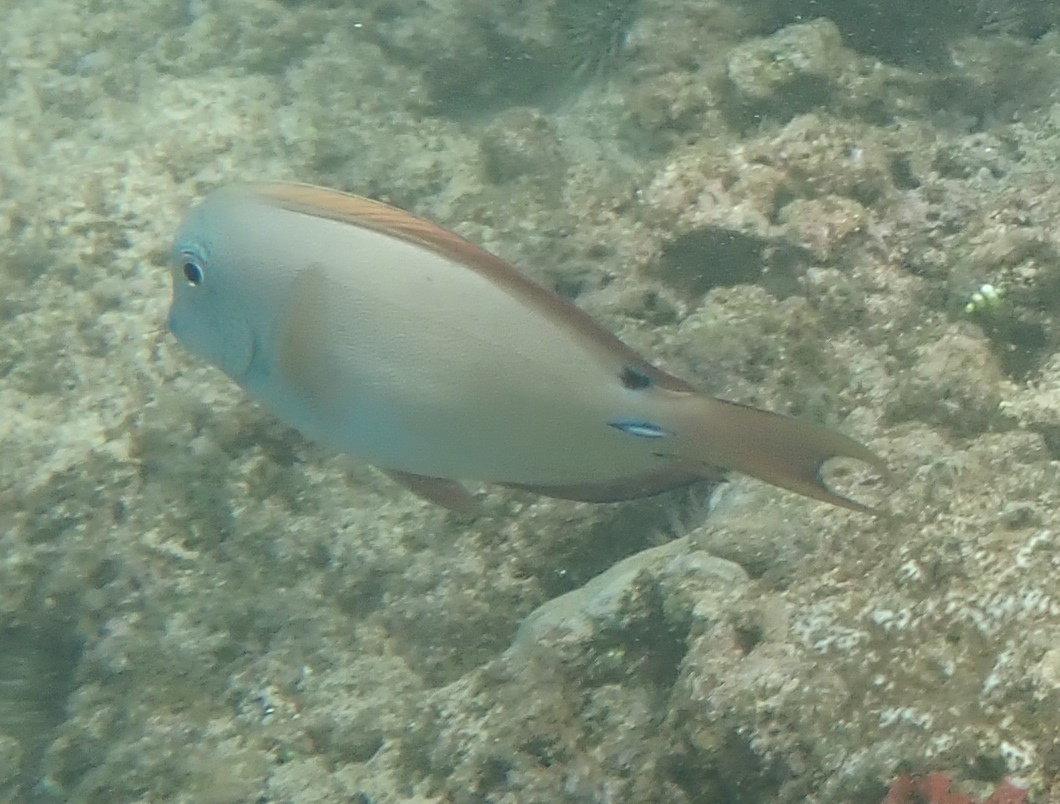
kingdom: Animalia
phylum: Chordata
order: Perciformes
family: Acanthuridae
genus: Acanthurus
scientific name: Acanthurus nigrofuscus
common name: Blackspot surgeonfish
